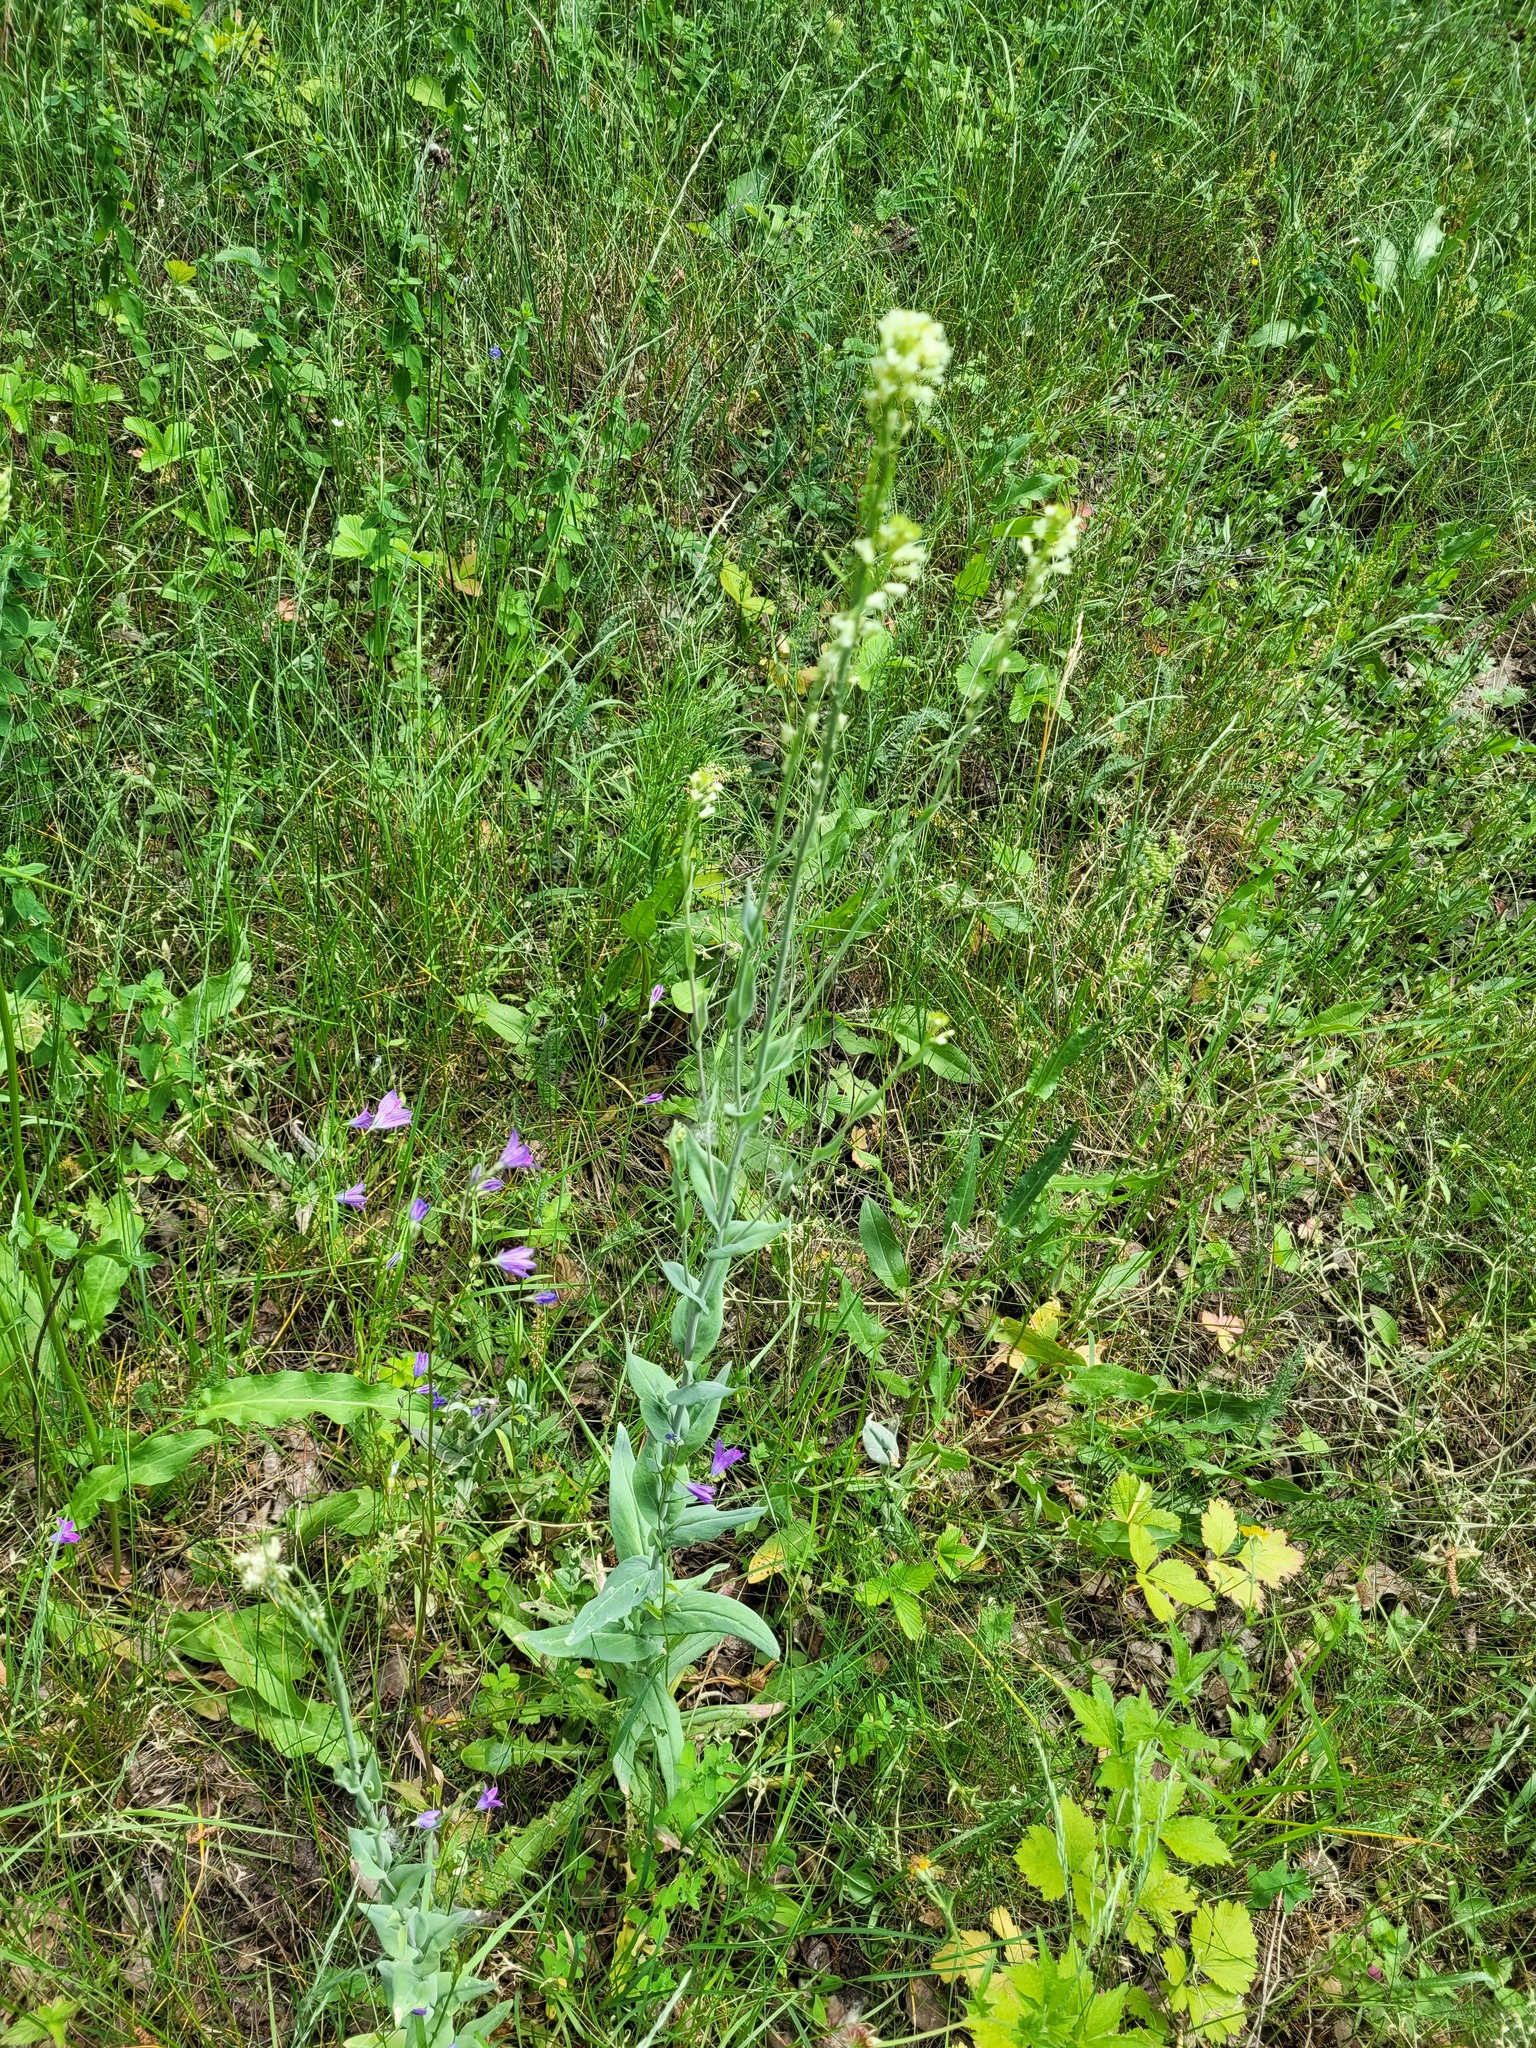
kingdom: Plantae
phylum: Tracheophyta
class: Magnoliopsida
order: Brassicales
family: Brassicaceae
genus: Turritis
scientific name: Turritis glabra
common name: Tower rockcress
